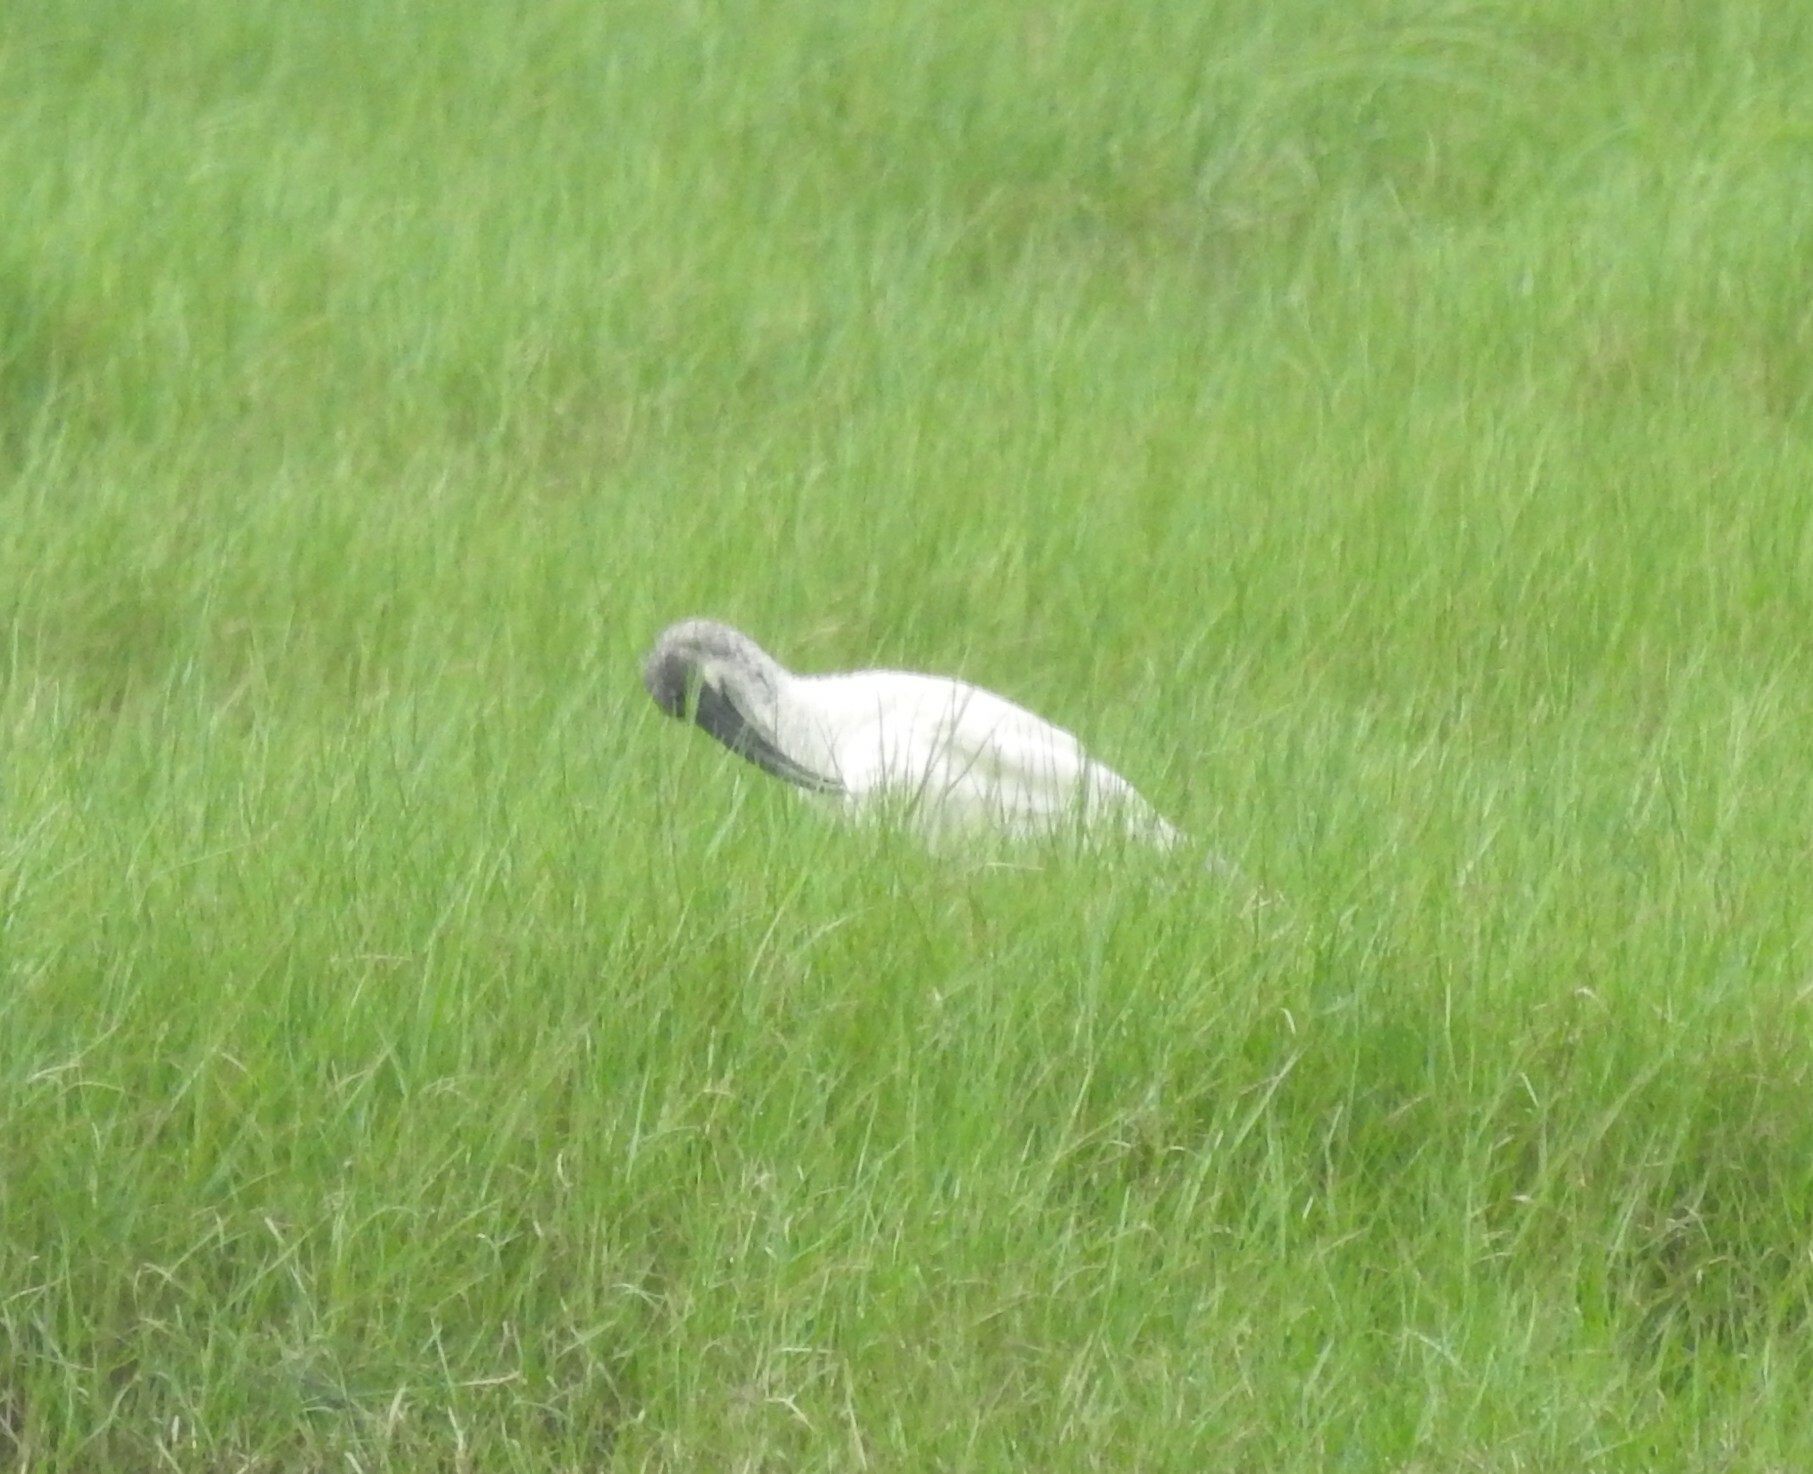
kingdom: Animalia
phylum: Chordata
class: Aves
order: Pelecaniformes
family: Threskiornithidae
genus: Threskiornis
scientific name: Threskiornis melanocephalus
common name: Black-headed ibis
